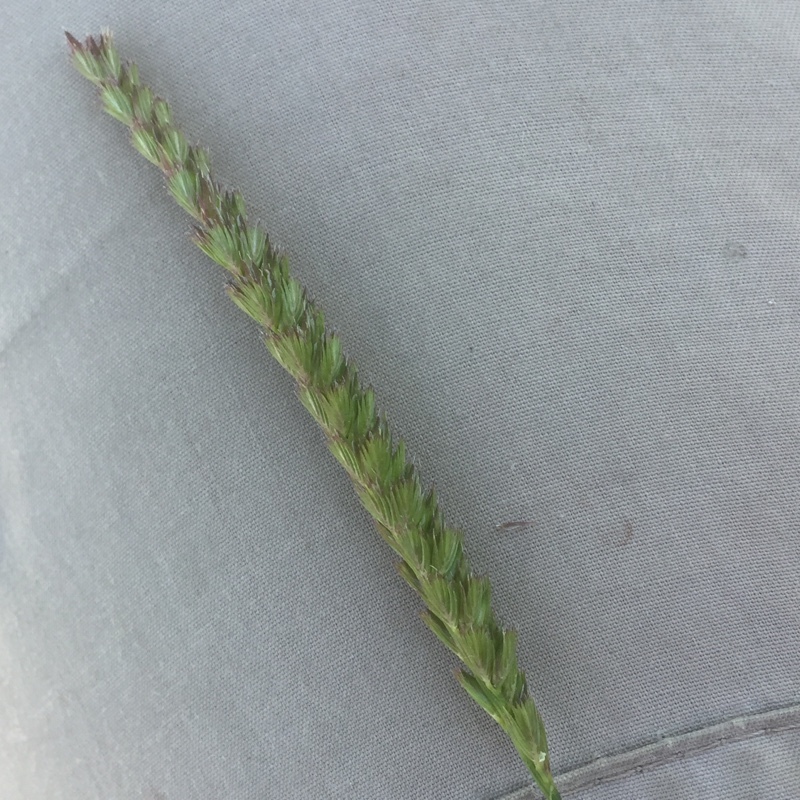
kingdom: Plantae
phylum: Tracheophyta
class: Liliopsida
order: Poales
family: Poaceae
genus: Cynosurus
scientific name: Cynosurus cristatus
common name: Crested dog's-tail
